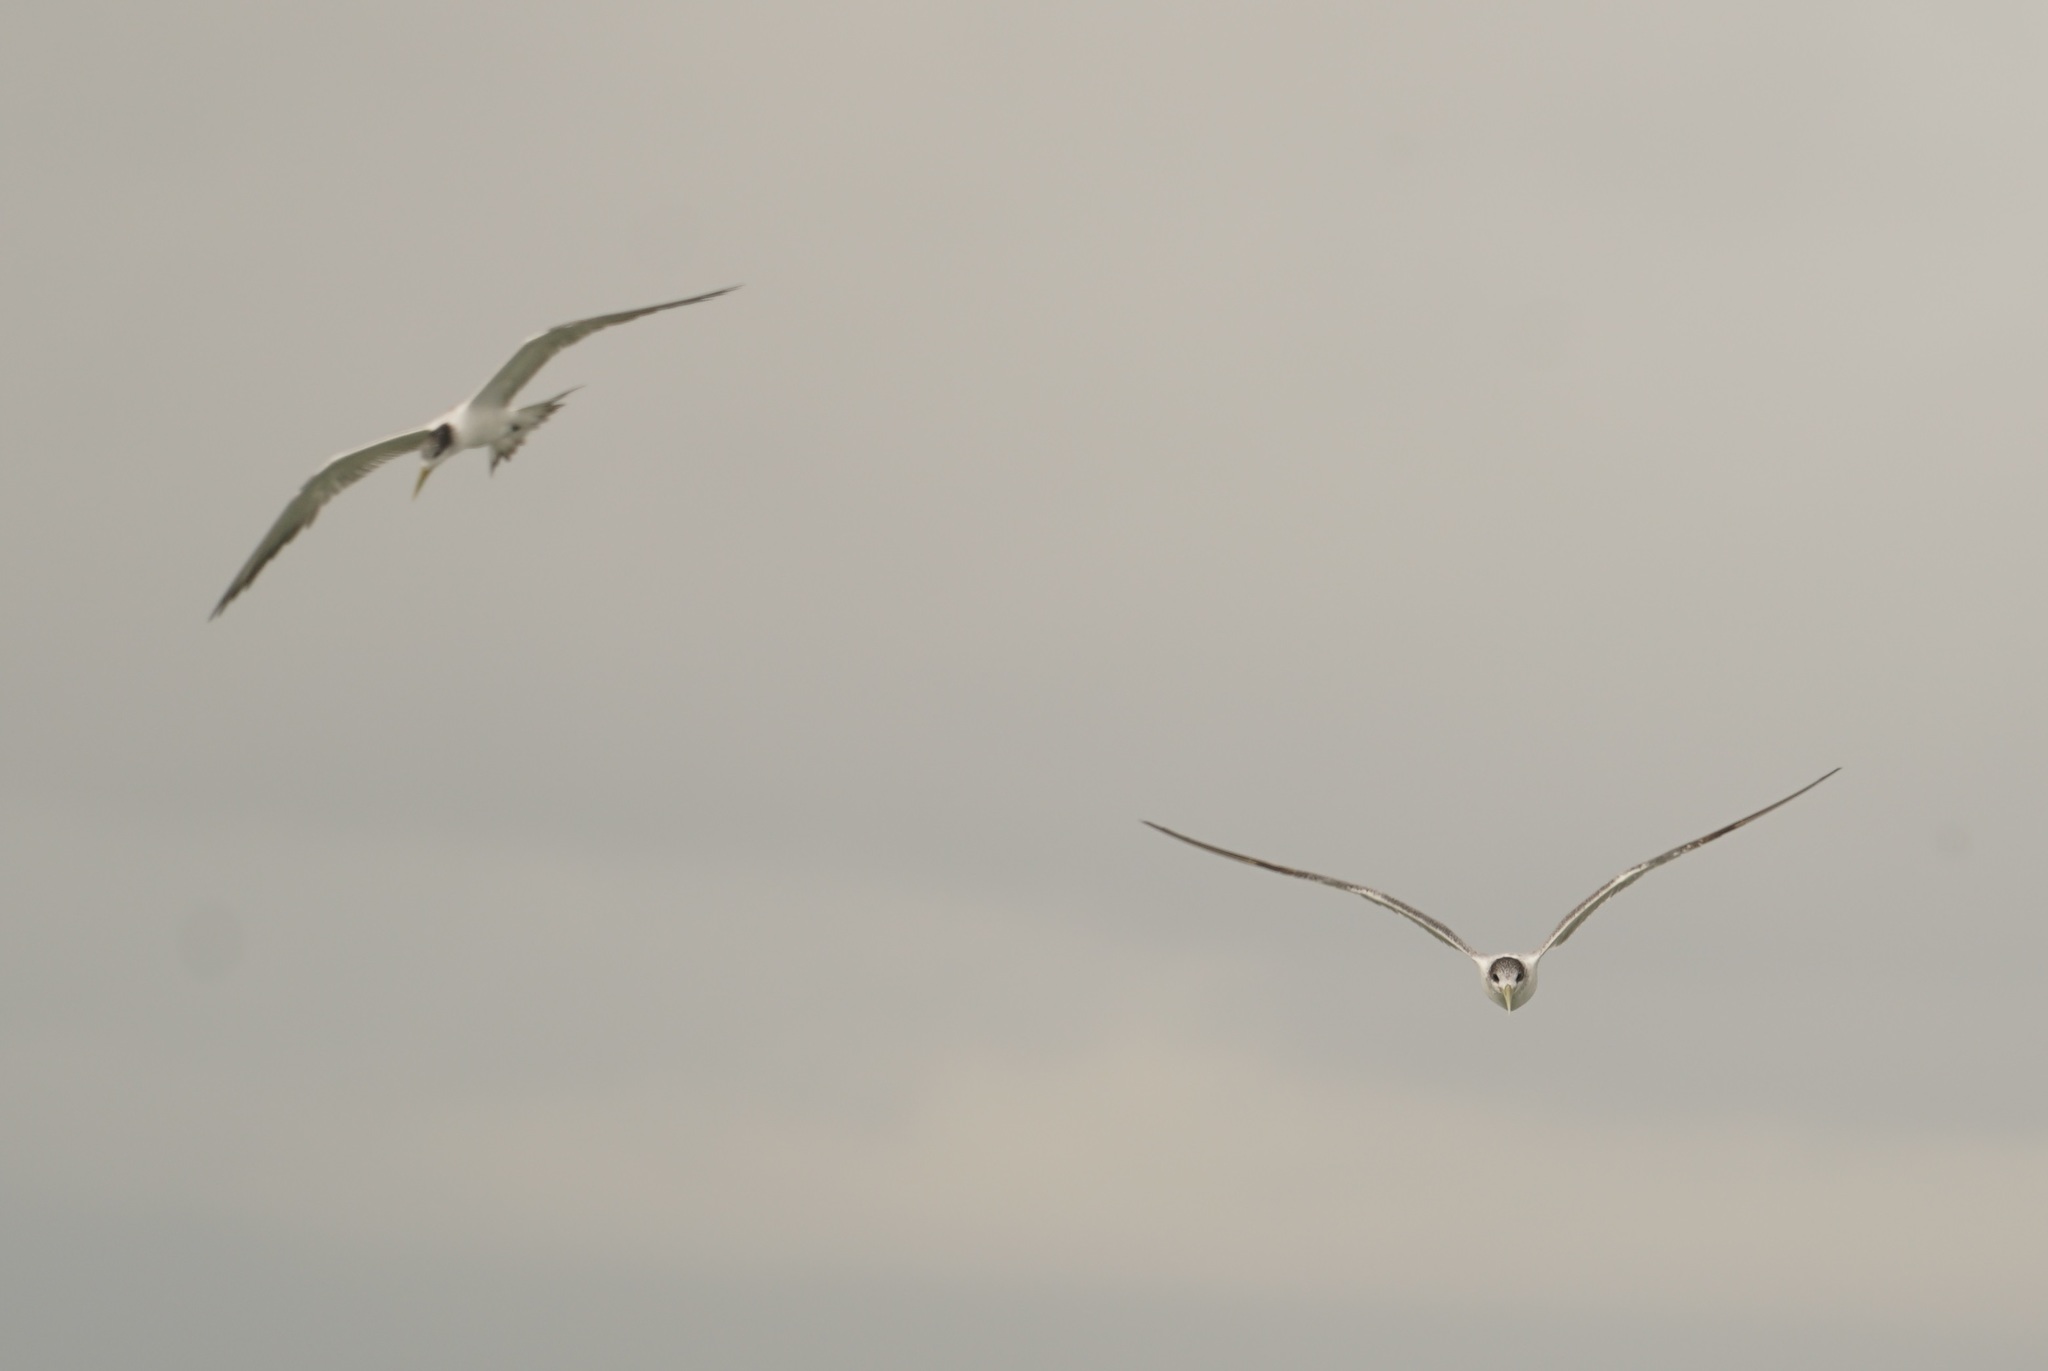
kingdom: Animalia
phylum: Chordata
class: Aves
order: Charadriiformes
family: Laridae
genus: Thalasseus
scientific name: Thalasseus bergii
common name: Greater crested tern
